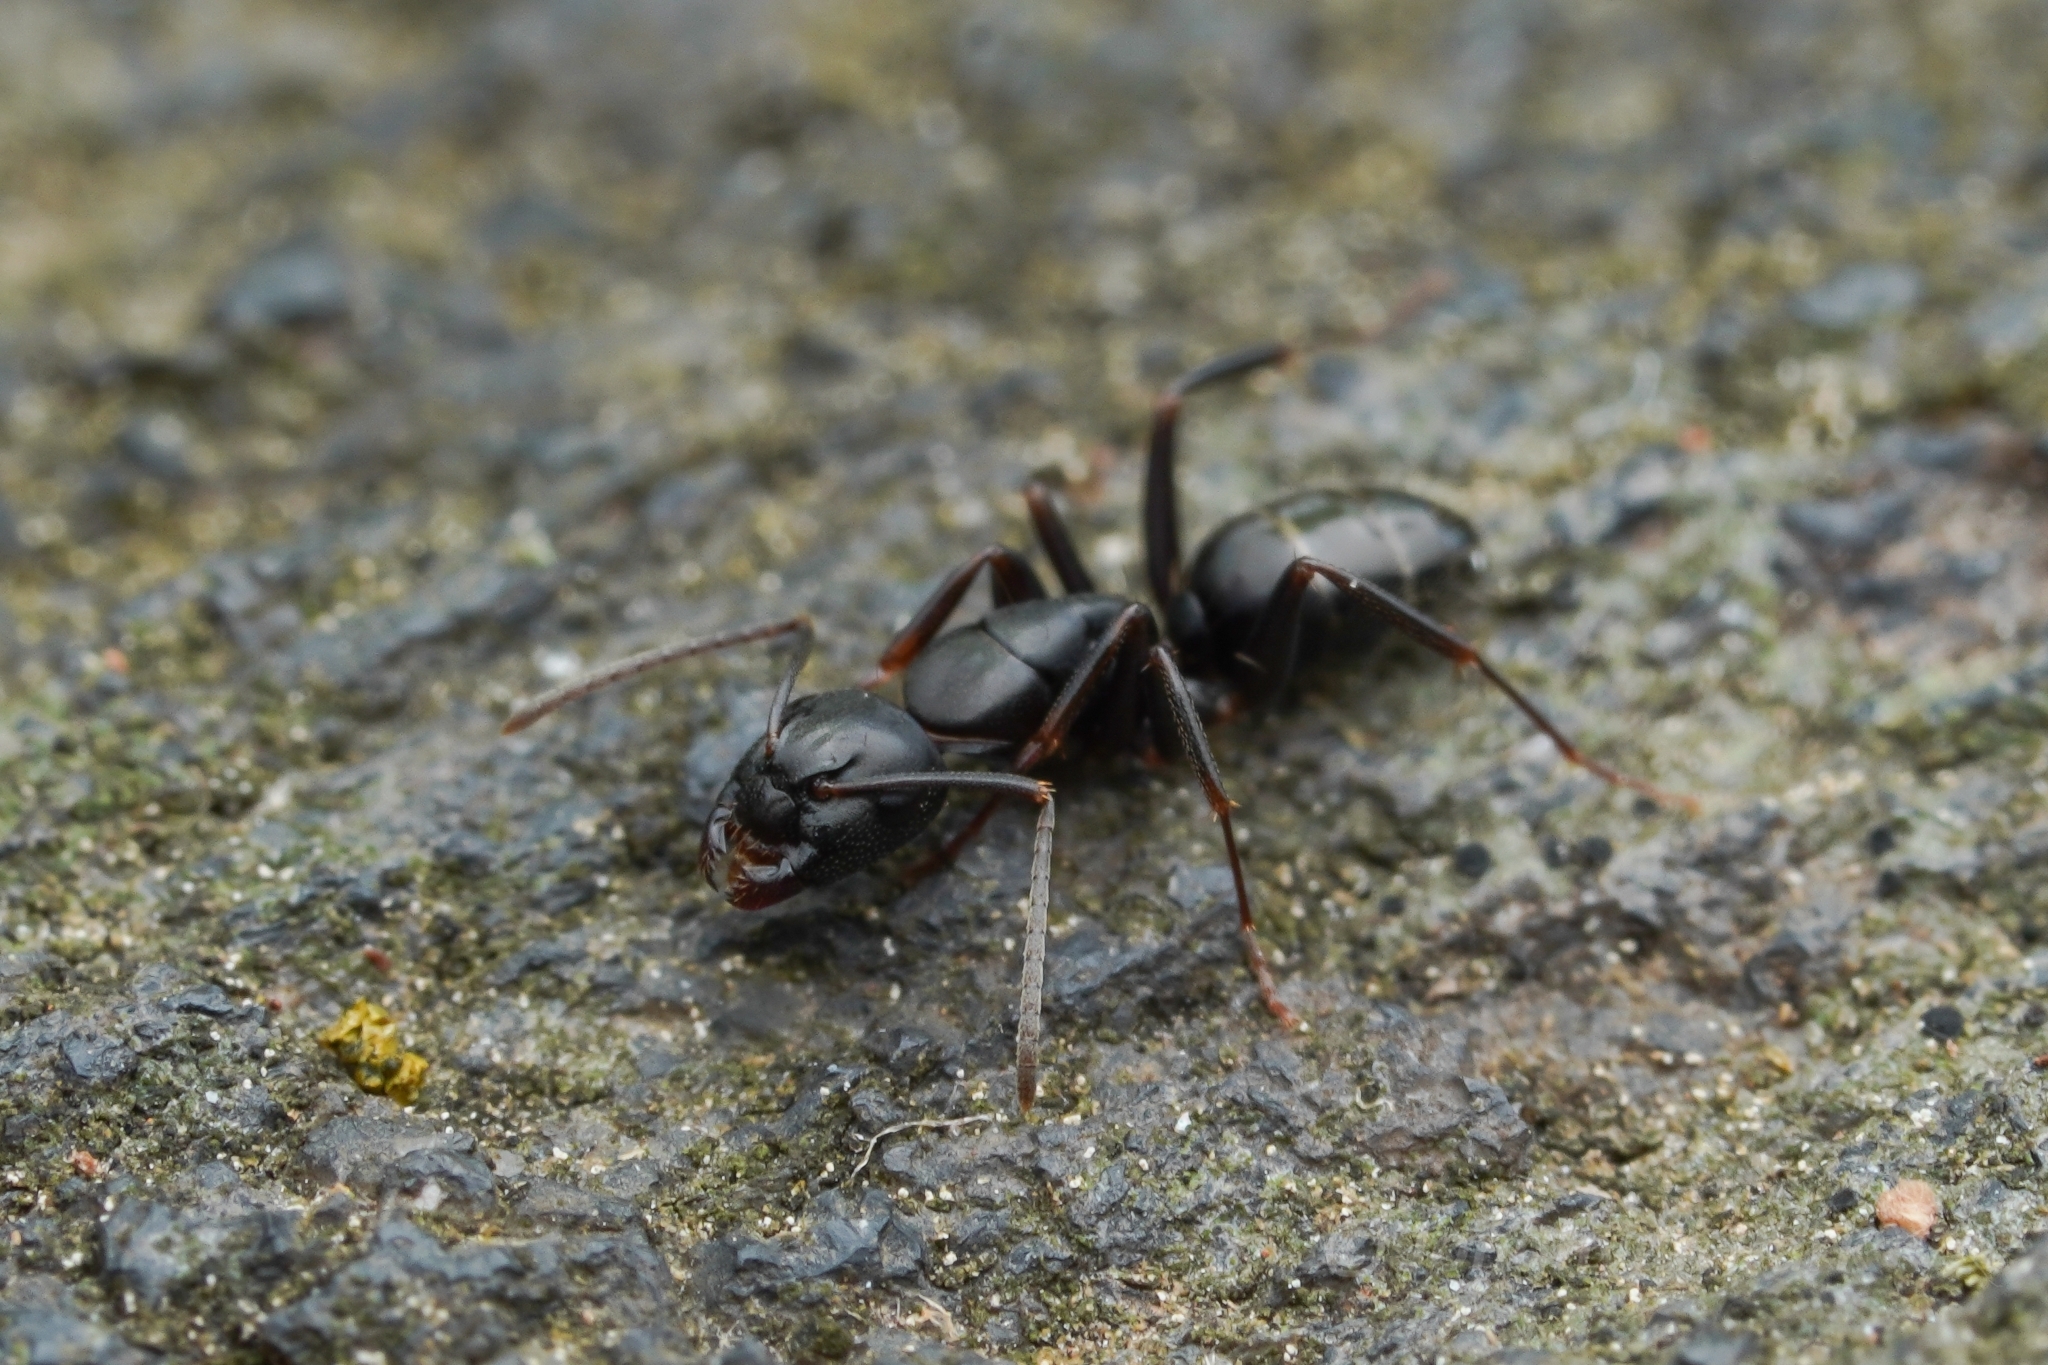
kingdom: Animalia
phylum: Arthropoda
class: Insecta
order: Hymenoptera
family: Formicidae
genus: Camponotus
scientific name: Camponotus nearcticus
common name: Smaller carpenter ant
